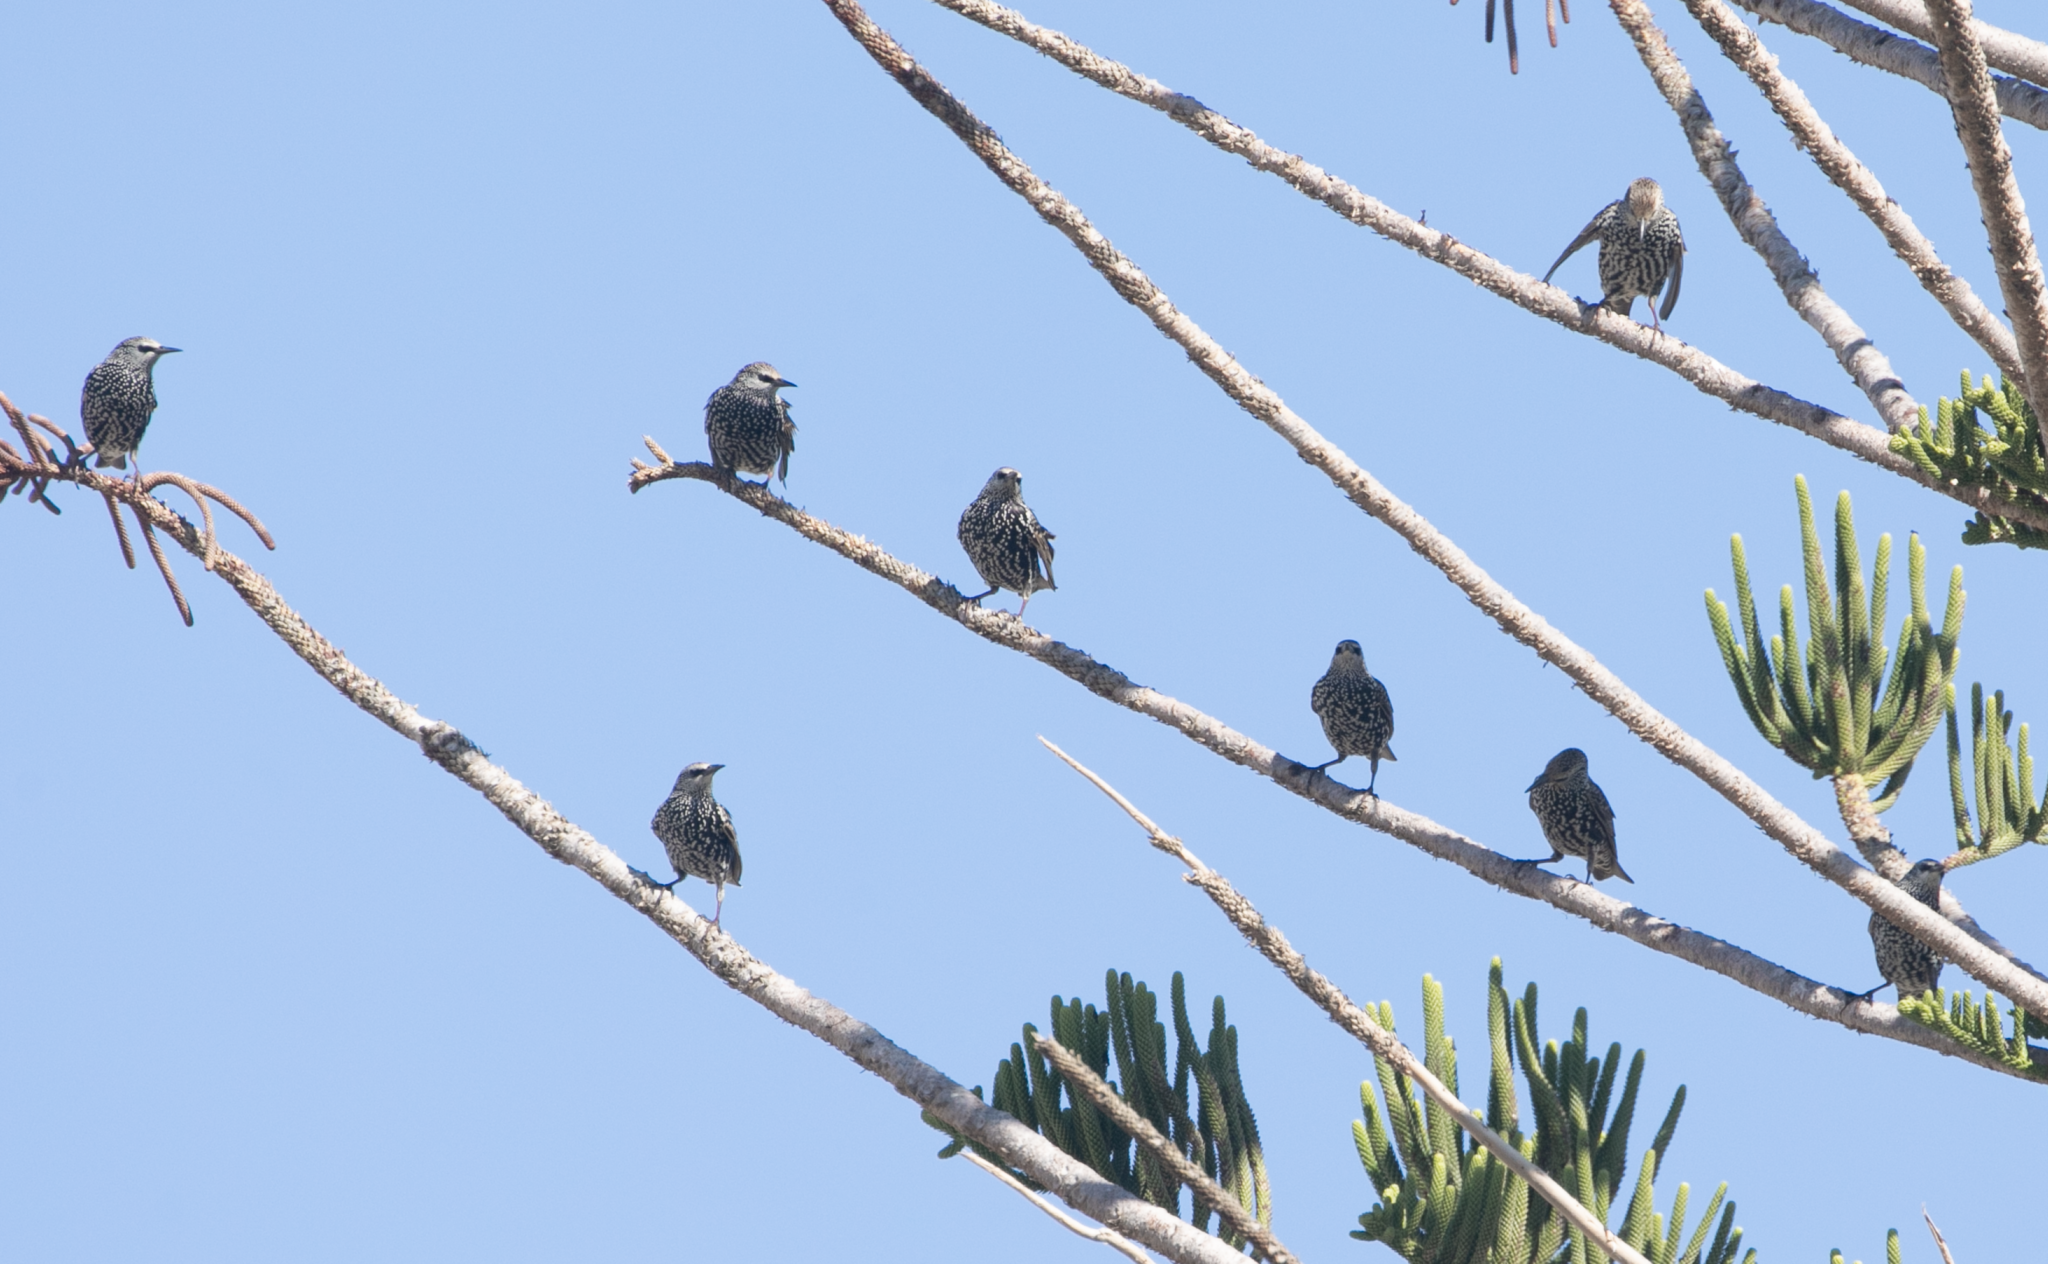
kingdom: Animalia
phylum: Chordata
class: Aves
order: Passeriformes
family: Sturnidae
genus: Sturnus
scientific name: Sturnus vulgaris
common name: Common starling
